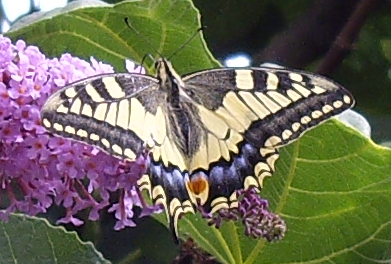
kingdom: Animalia
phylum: Arthropoda
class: Insecta
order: Lepidoptera
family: Papilionidae
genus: Papilio
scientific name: Papilio machaon
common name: Swallowtail
